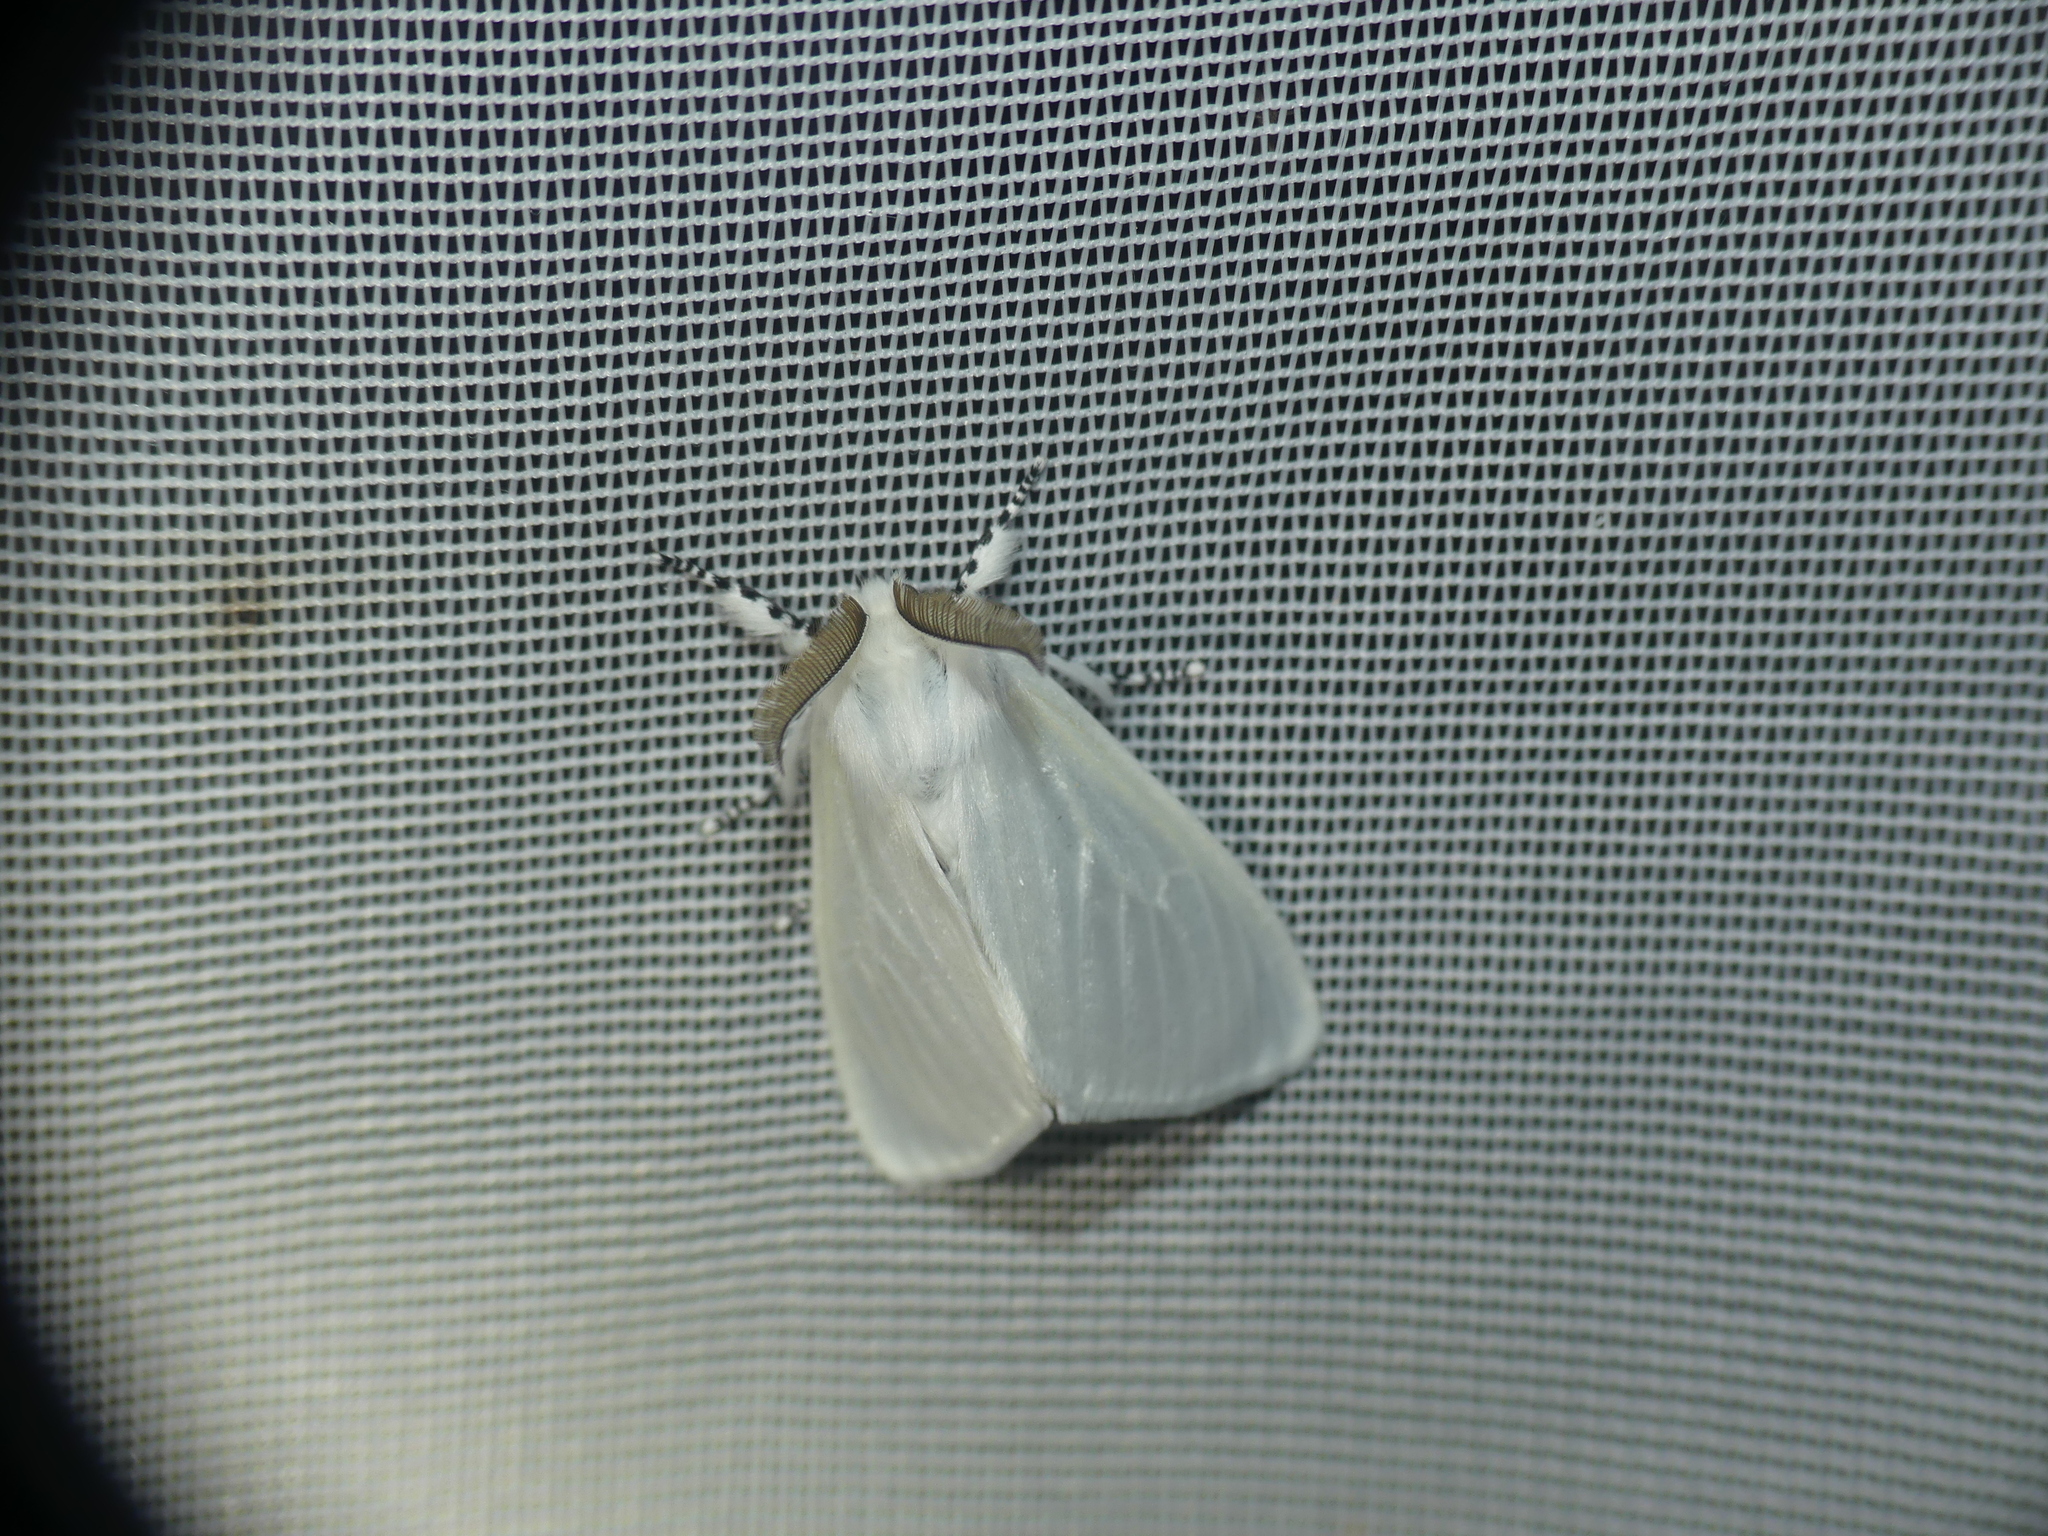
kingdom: Animalia
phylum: Arthropoda
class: Insecta
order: Lepidoptera
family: Erebidae
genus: Leucoma
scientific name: Leucoma salicis
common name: White satin moth
